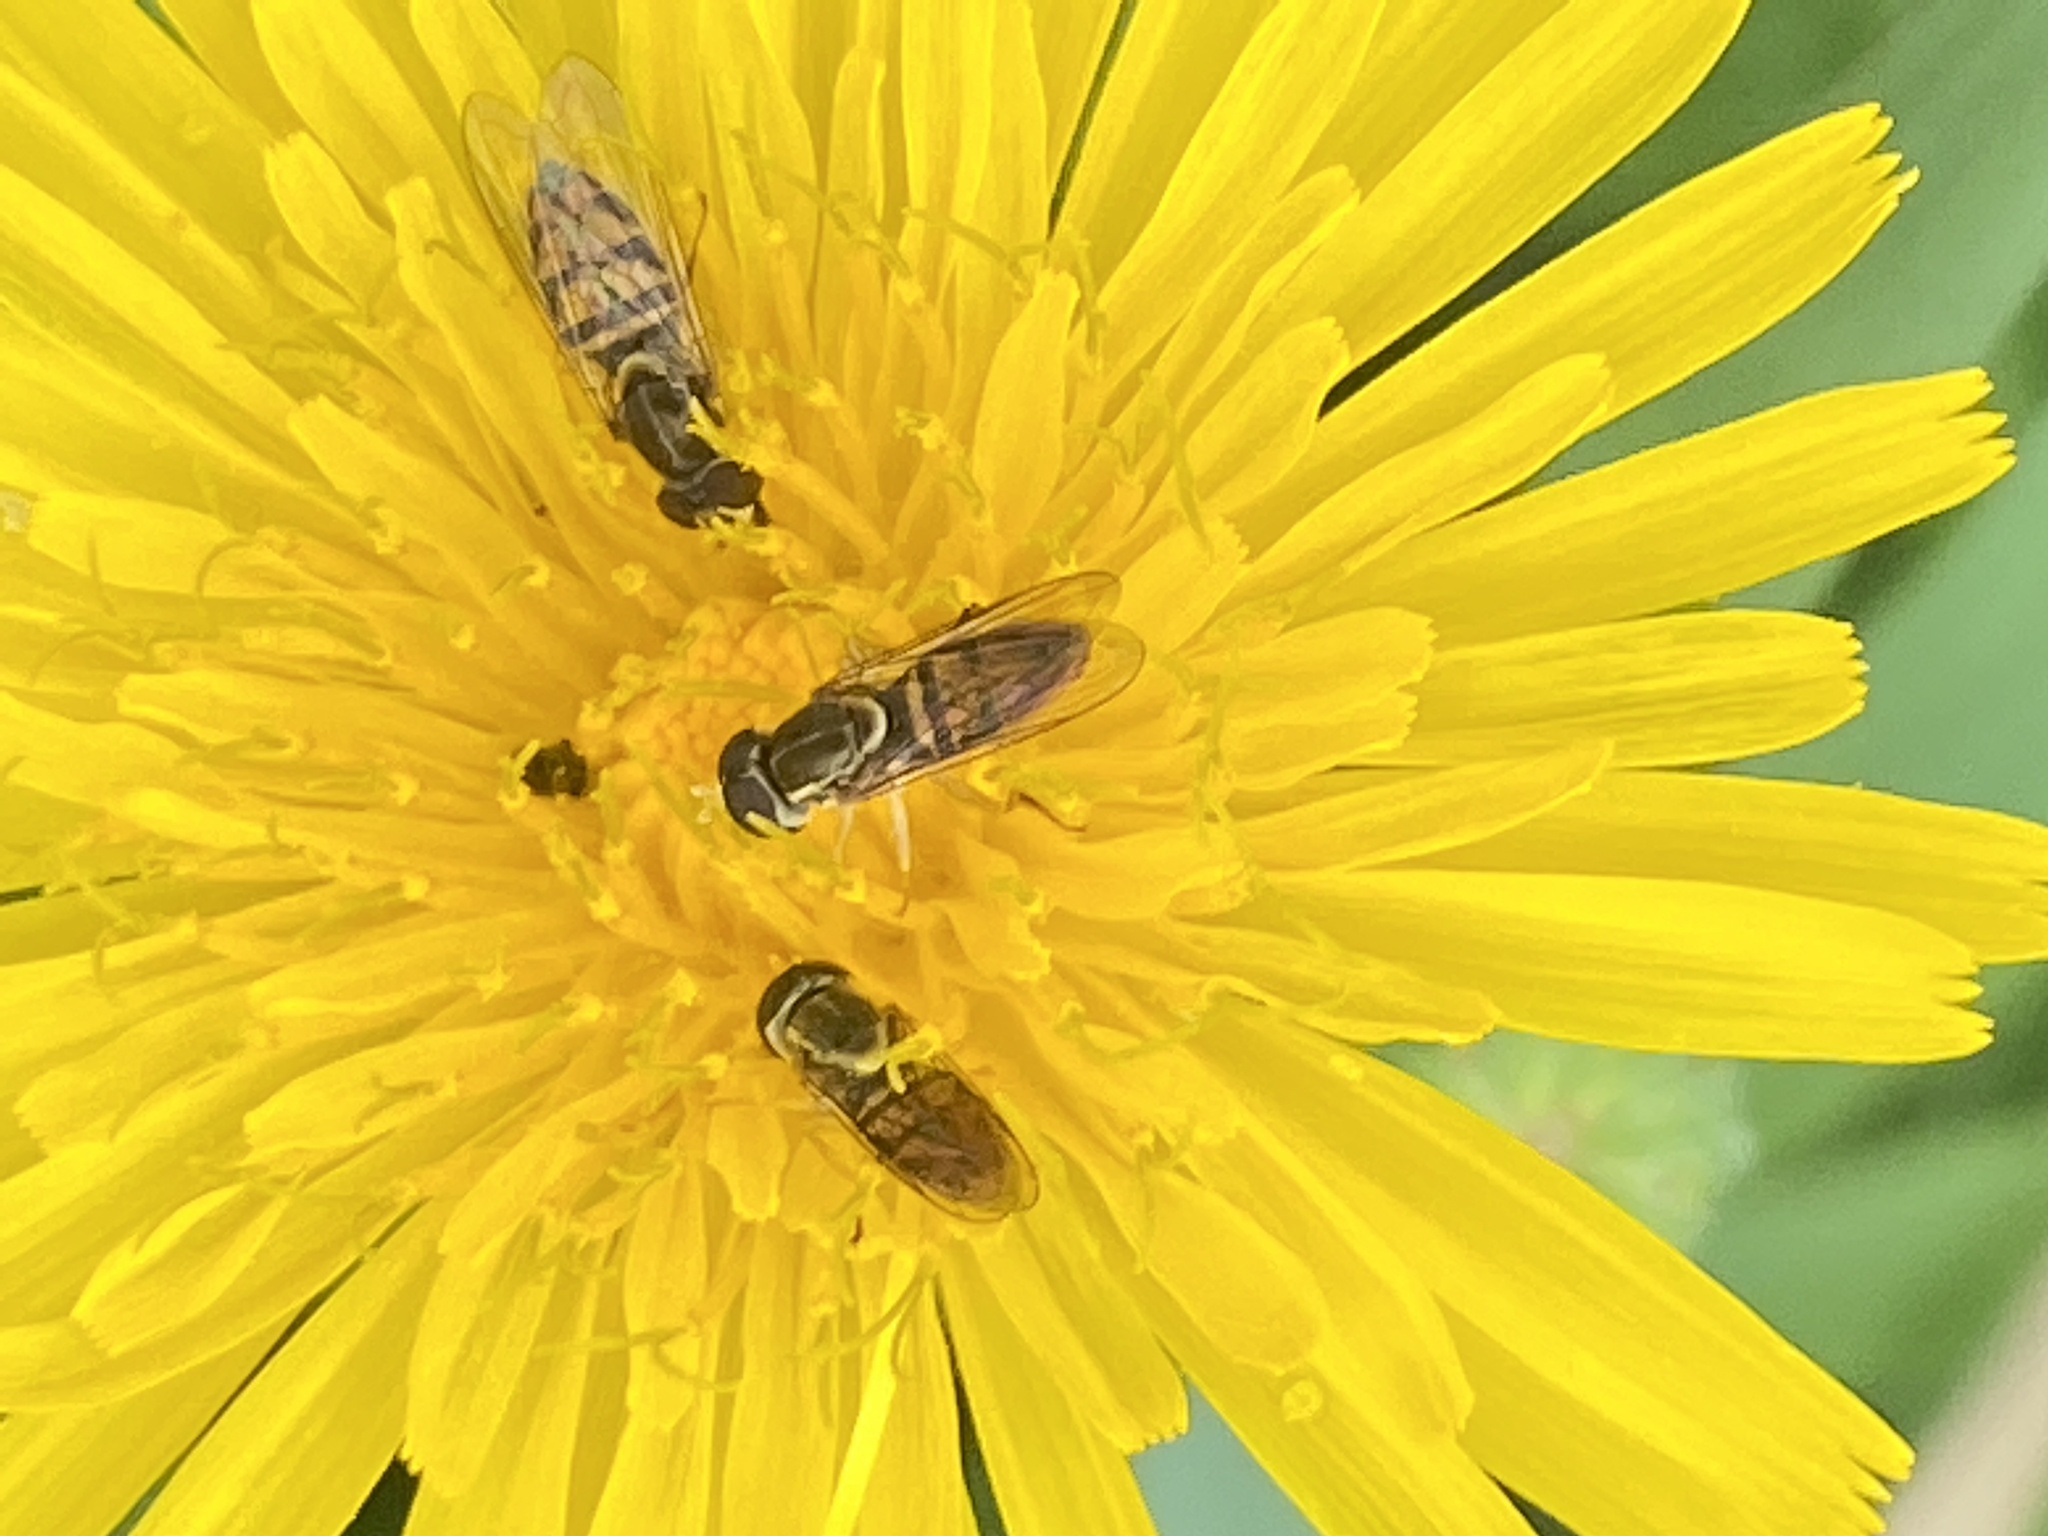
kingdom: Animalia
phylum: Arthropoda
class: Insecta
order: Diptera
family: Syrphidae
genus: Toxomerus
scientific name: Toxomerus marginatus
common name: Syrphid fly
